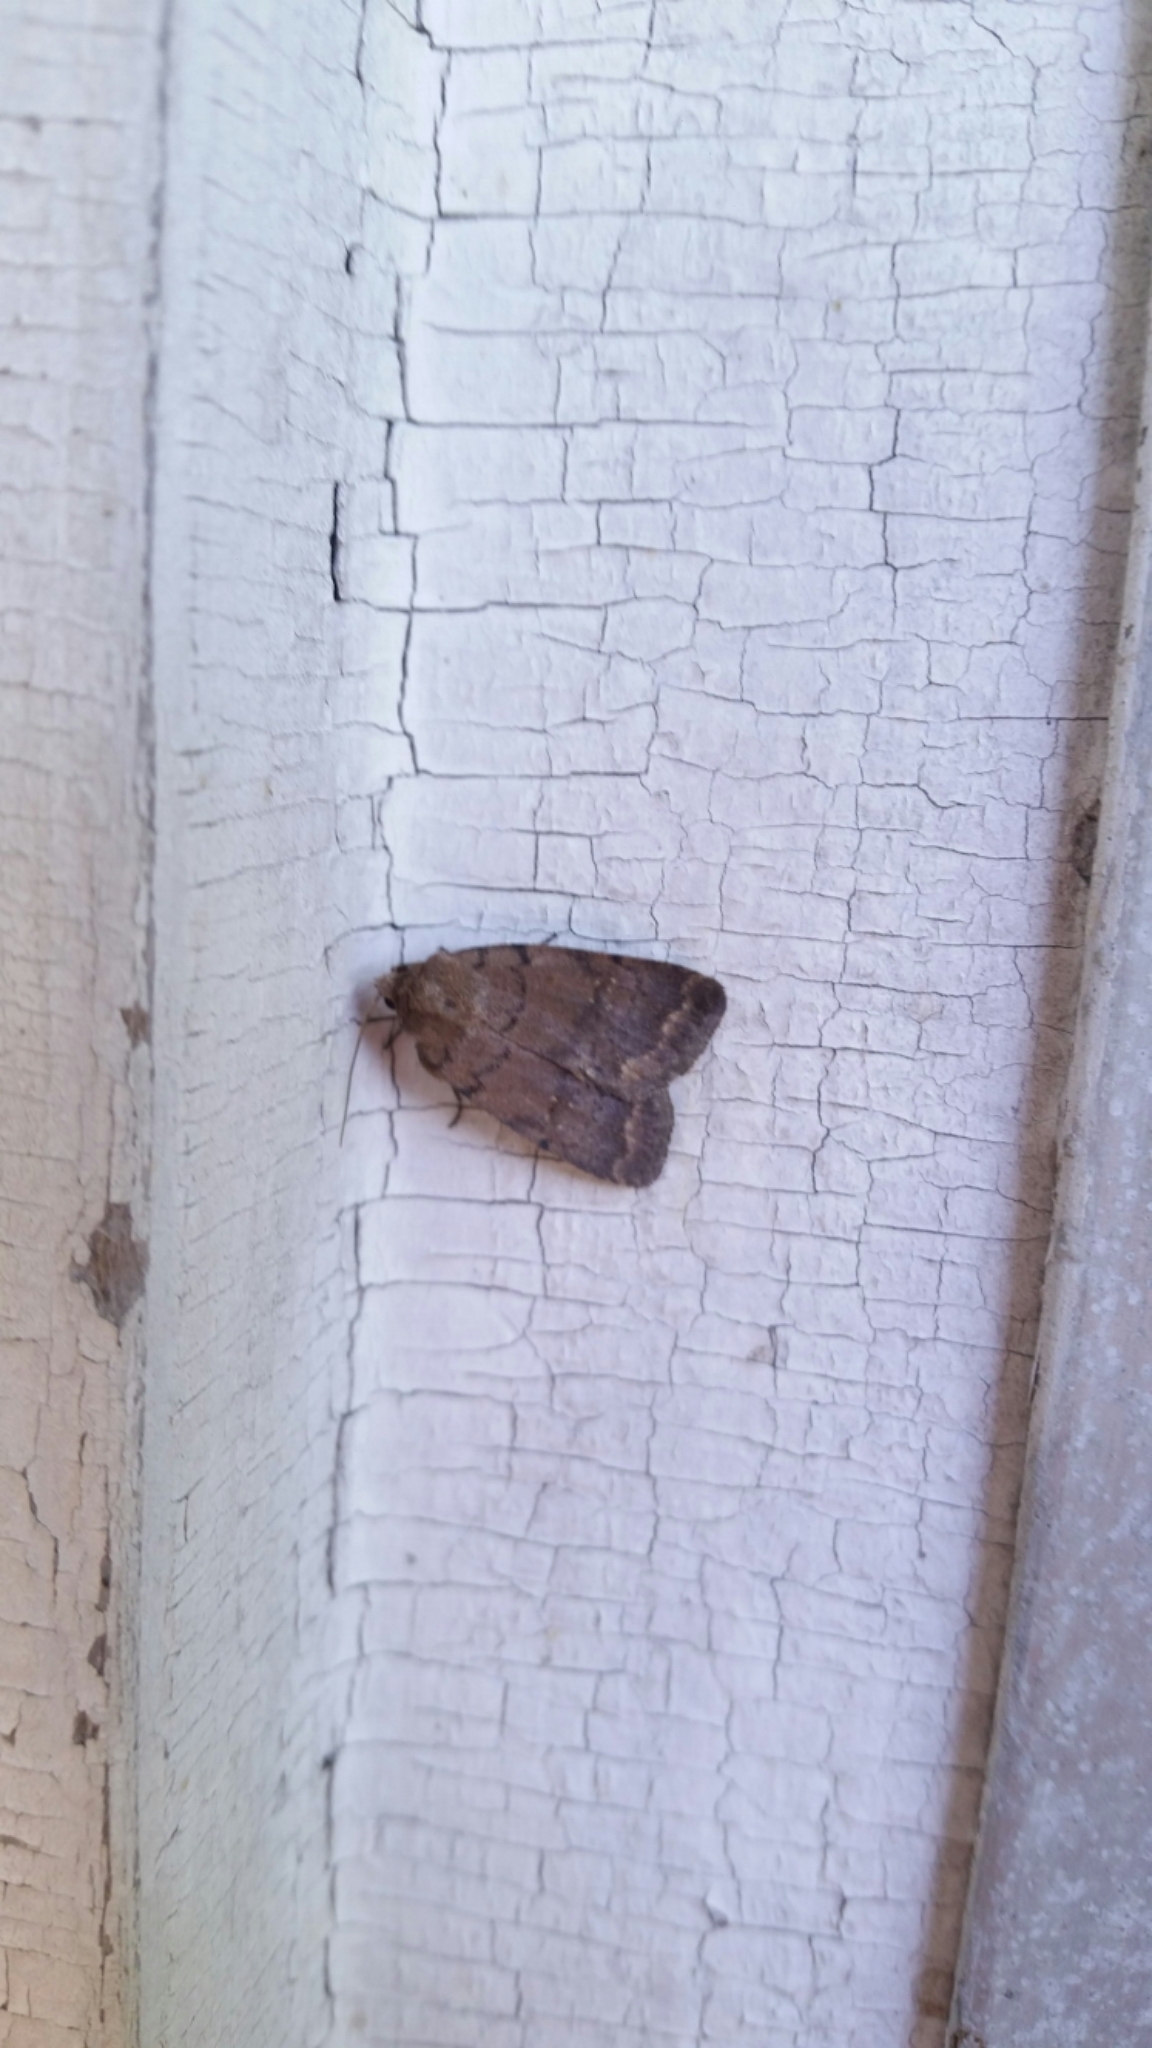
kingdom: Animalia
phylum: Arthropoda
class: Insecta
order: Lepidoptera
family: Noctuidae
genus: Athetis
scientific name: Athetis tarda
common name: Slowpoke moth
